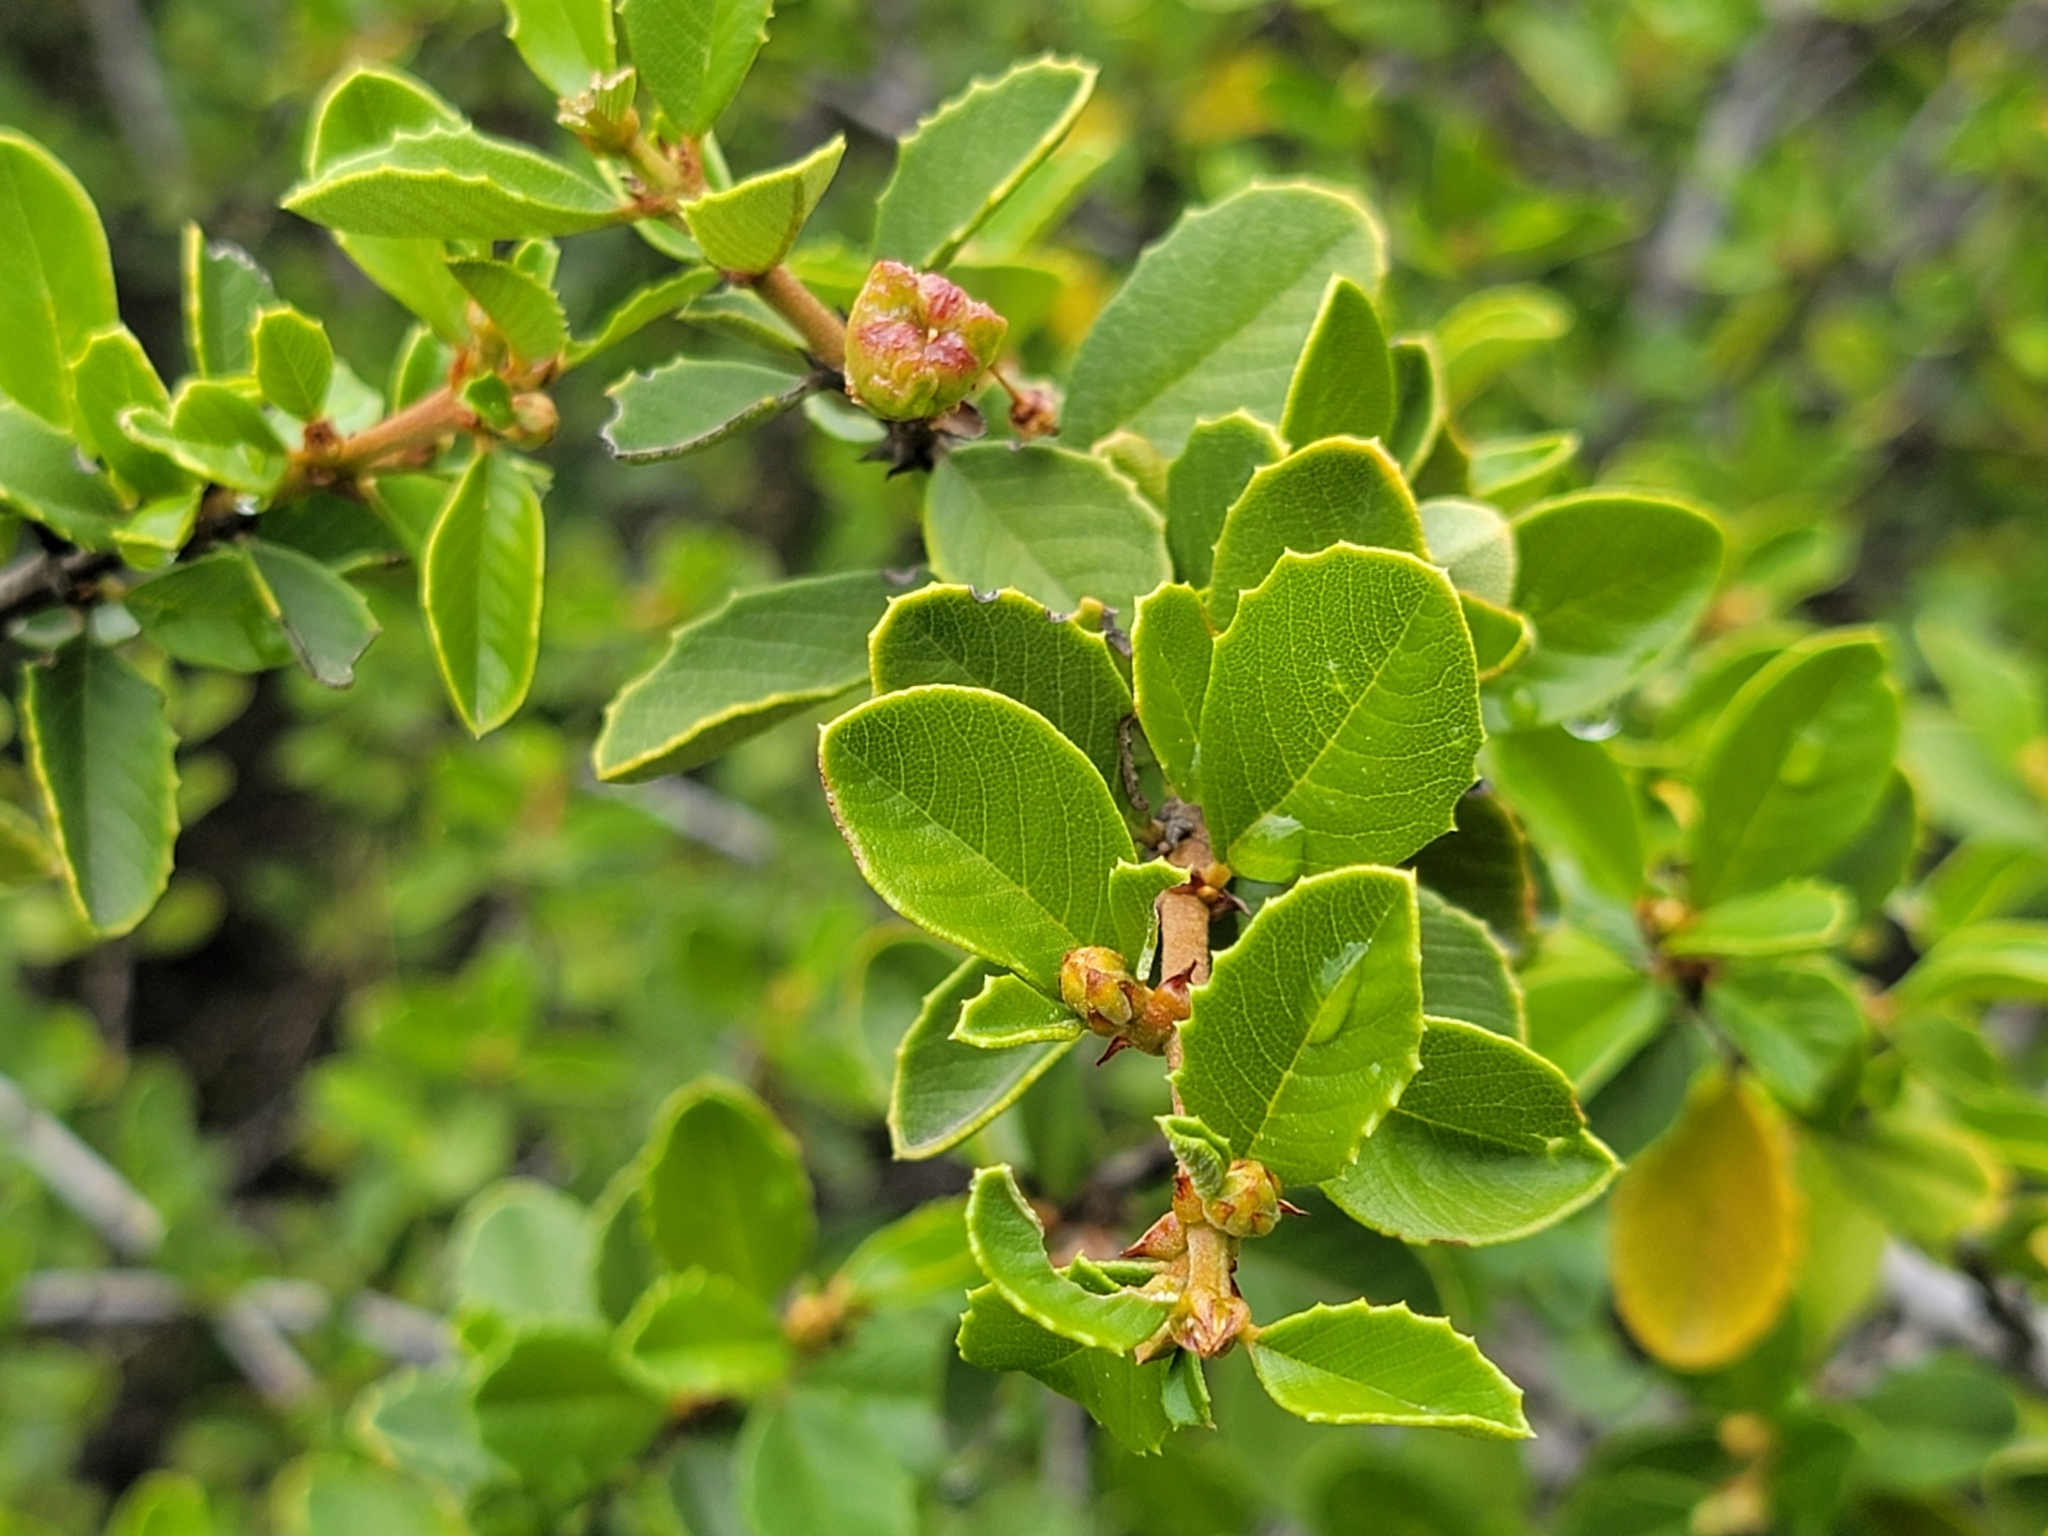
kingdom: Plantae
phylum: Tracheophyta
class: Magnoliopsida
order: Rosales
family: Rhamnaceae
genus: Ceanothus
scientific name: Ceanothus ferrisiae
